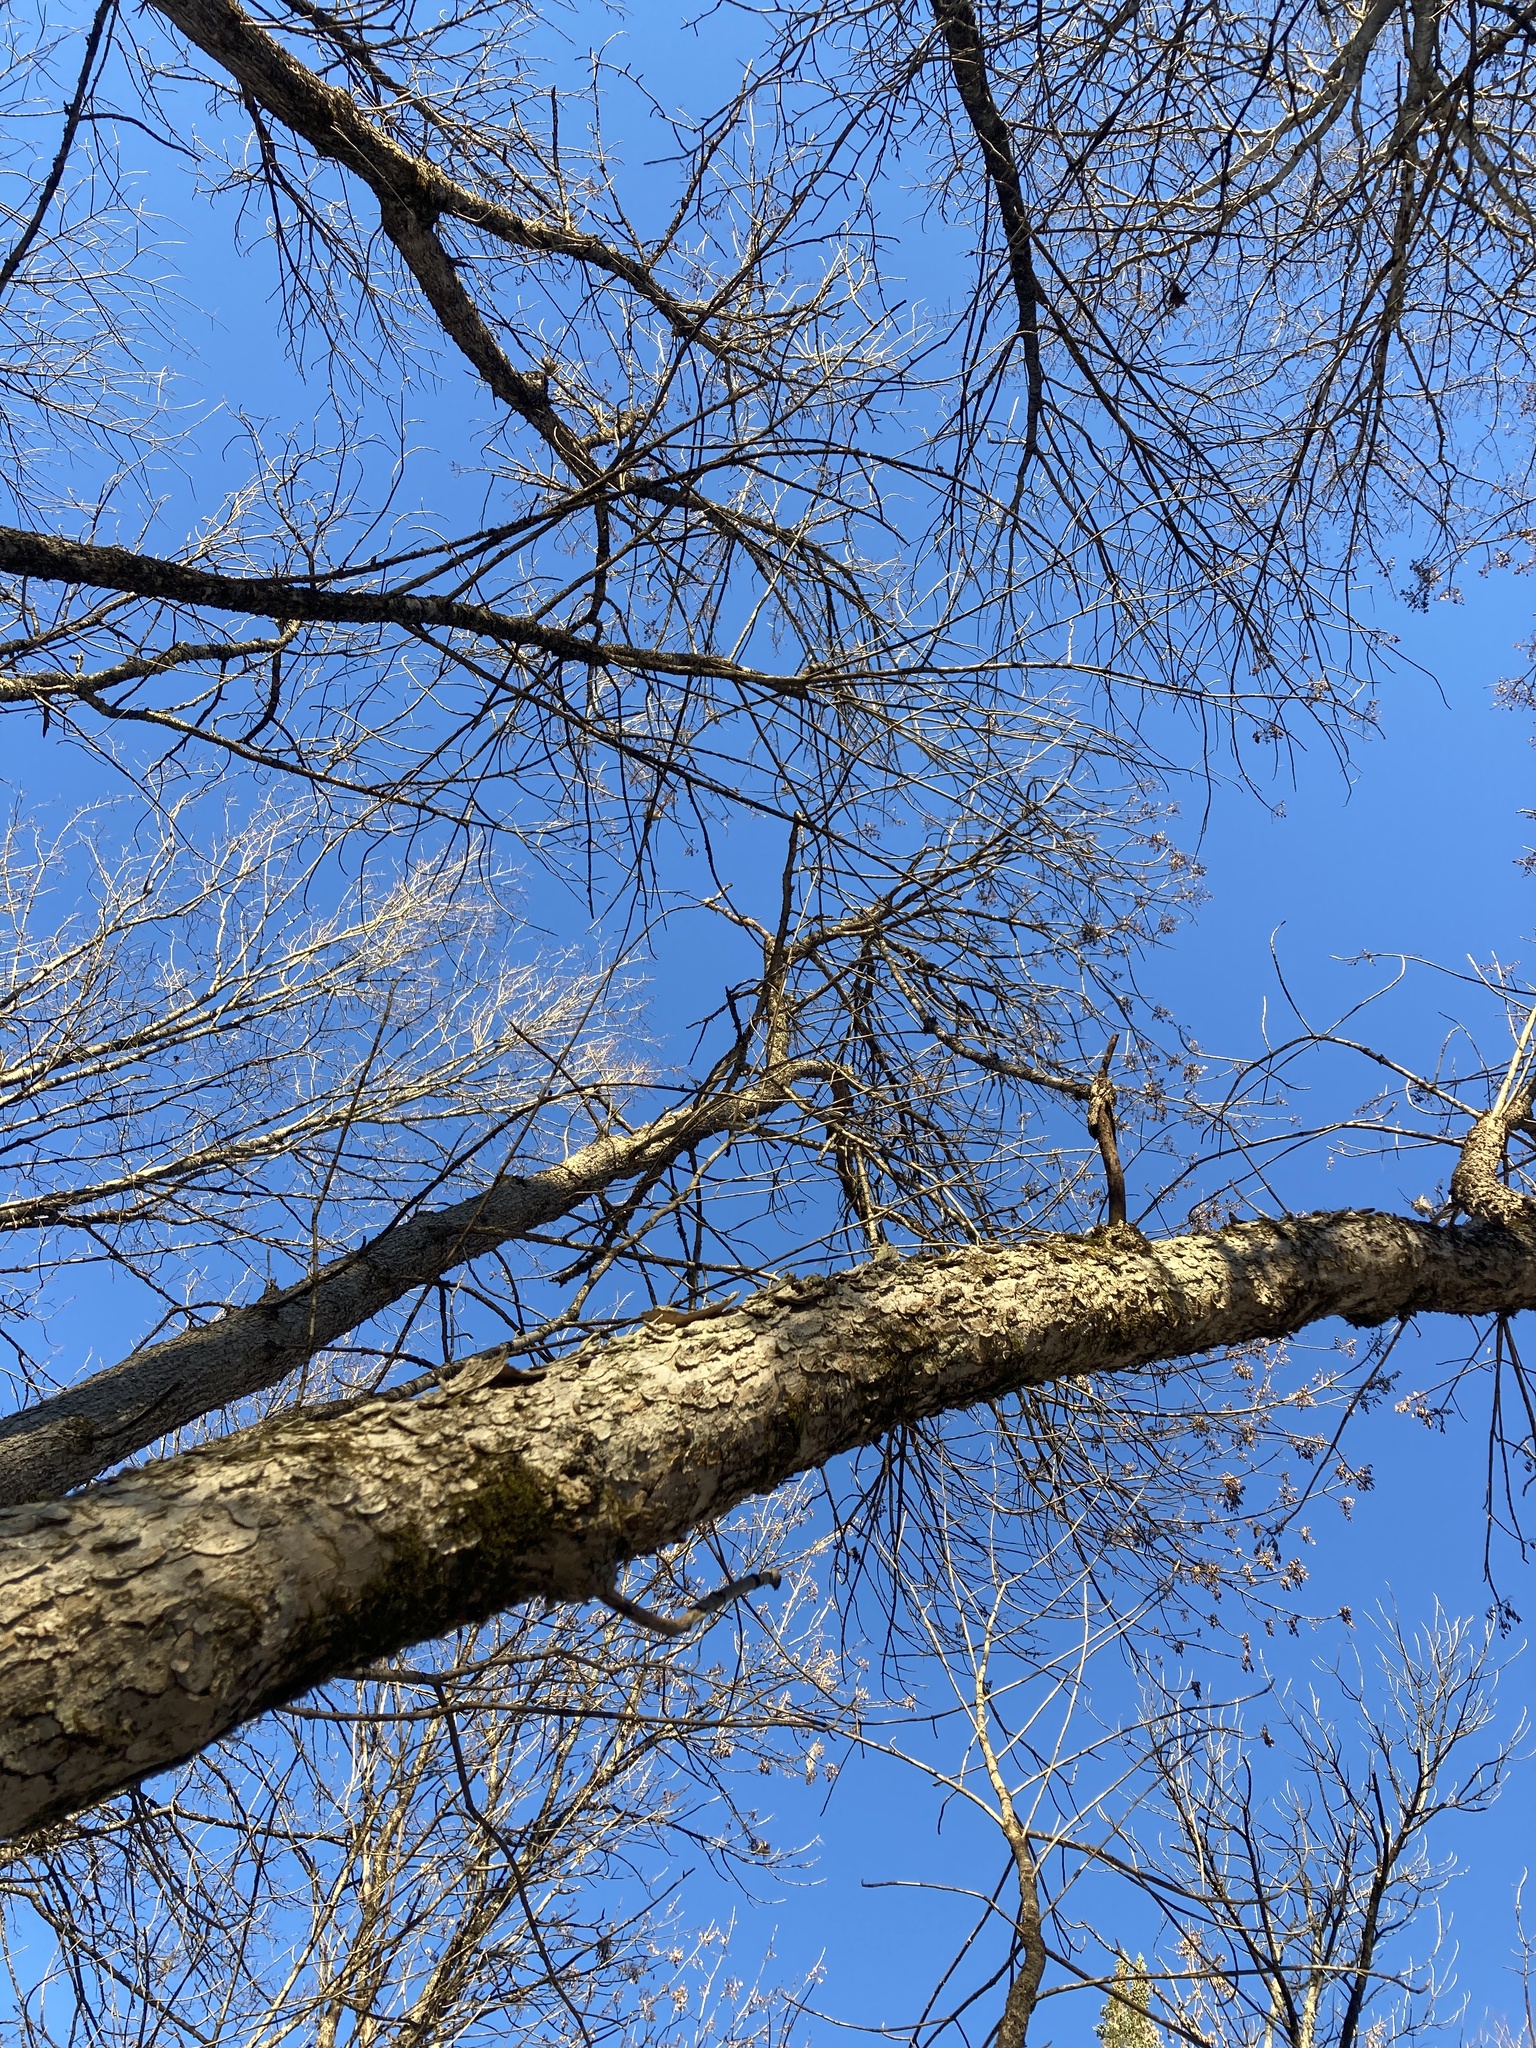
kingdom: Plantae
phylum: Tracheophyta
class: Magnoliopsida
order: Lamiales
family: Oleaceae
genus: Fraxinus
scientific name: Fraxinus nigra
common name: Black ash
